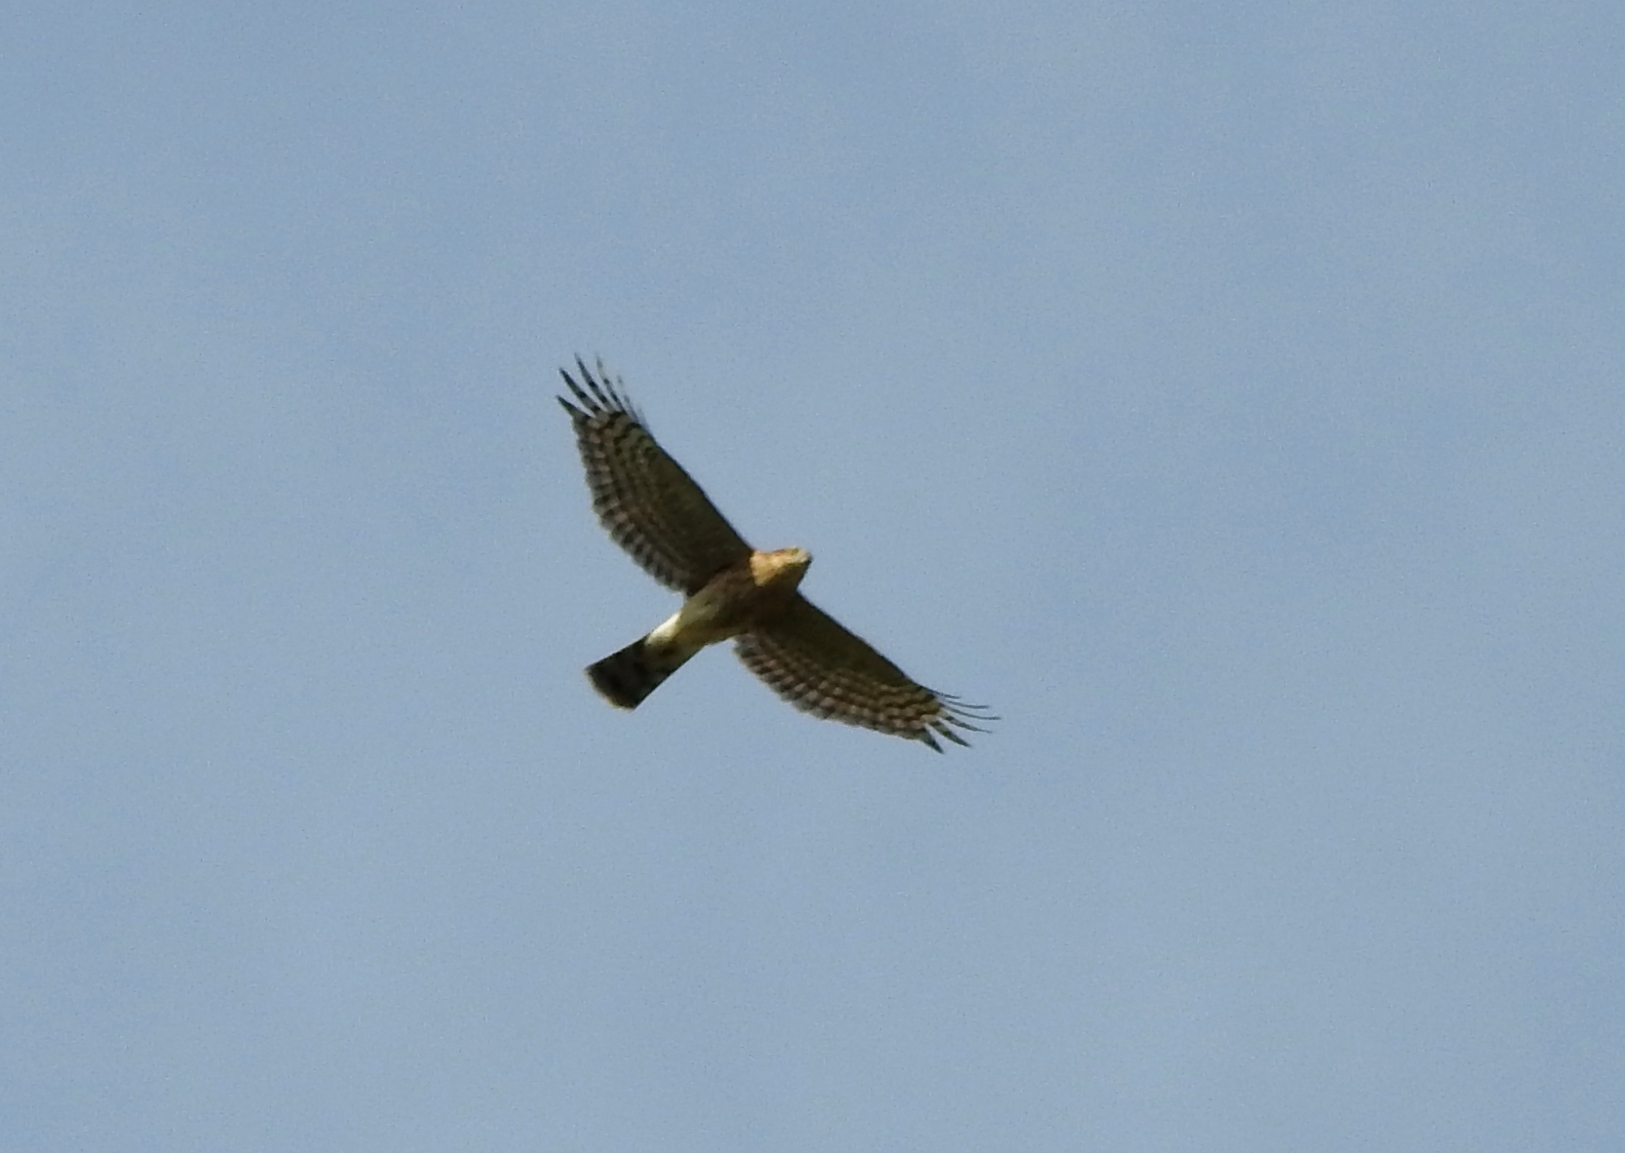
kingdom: Animalia
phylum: Chordata
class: Aves
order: Accipitriformes
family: Accipitridae
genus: Accipiter
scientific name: Accipiter nisus
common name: Eurasian sparrowhawk
